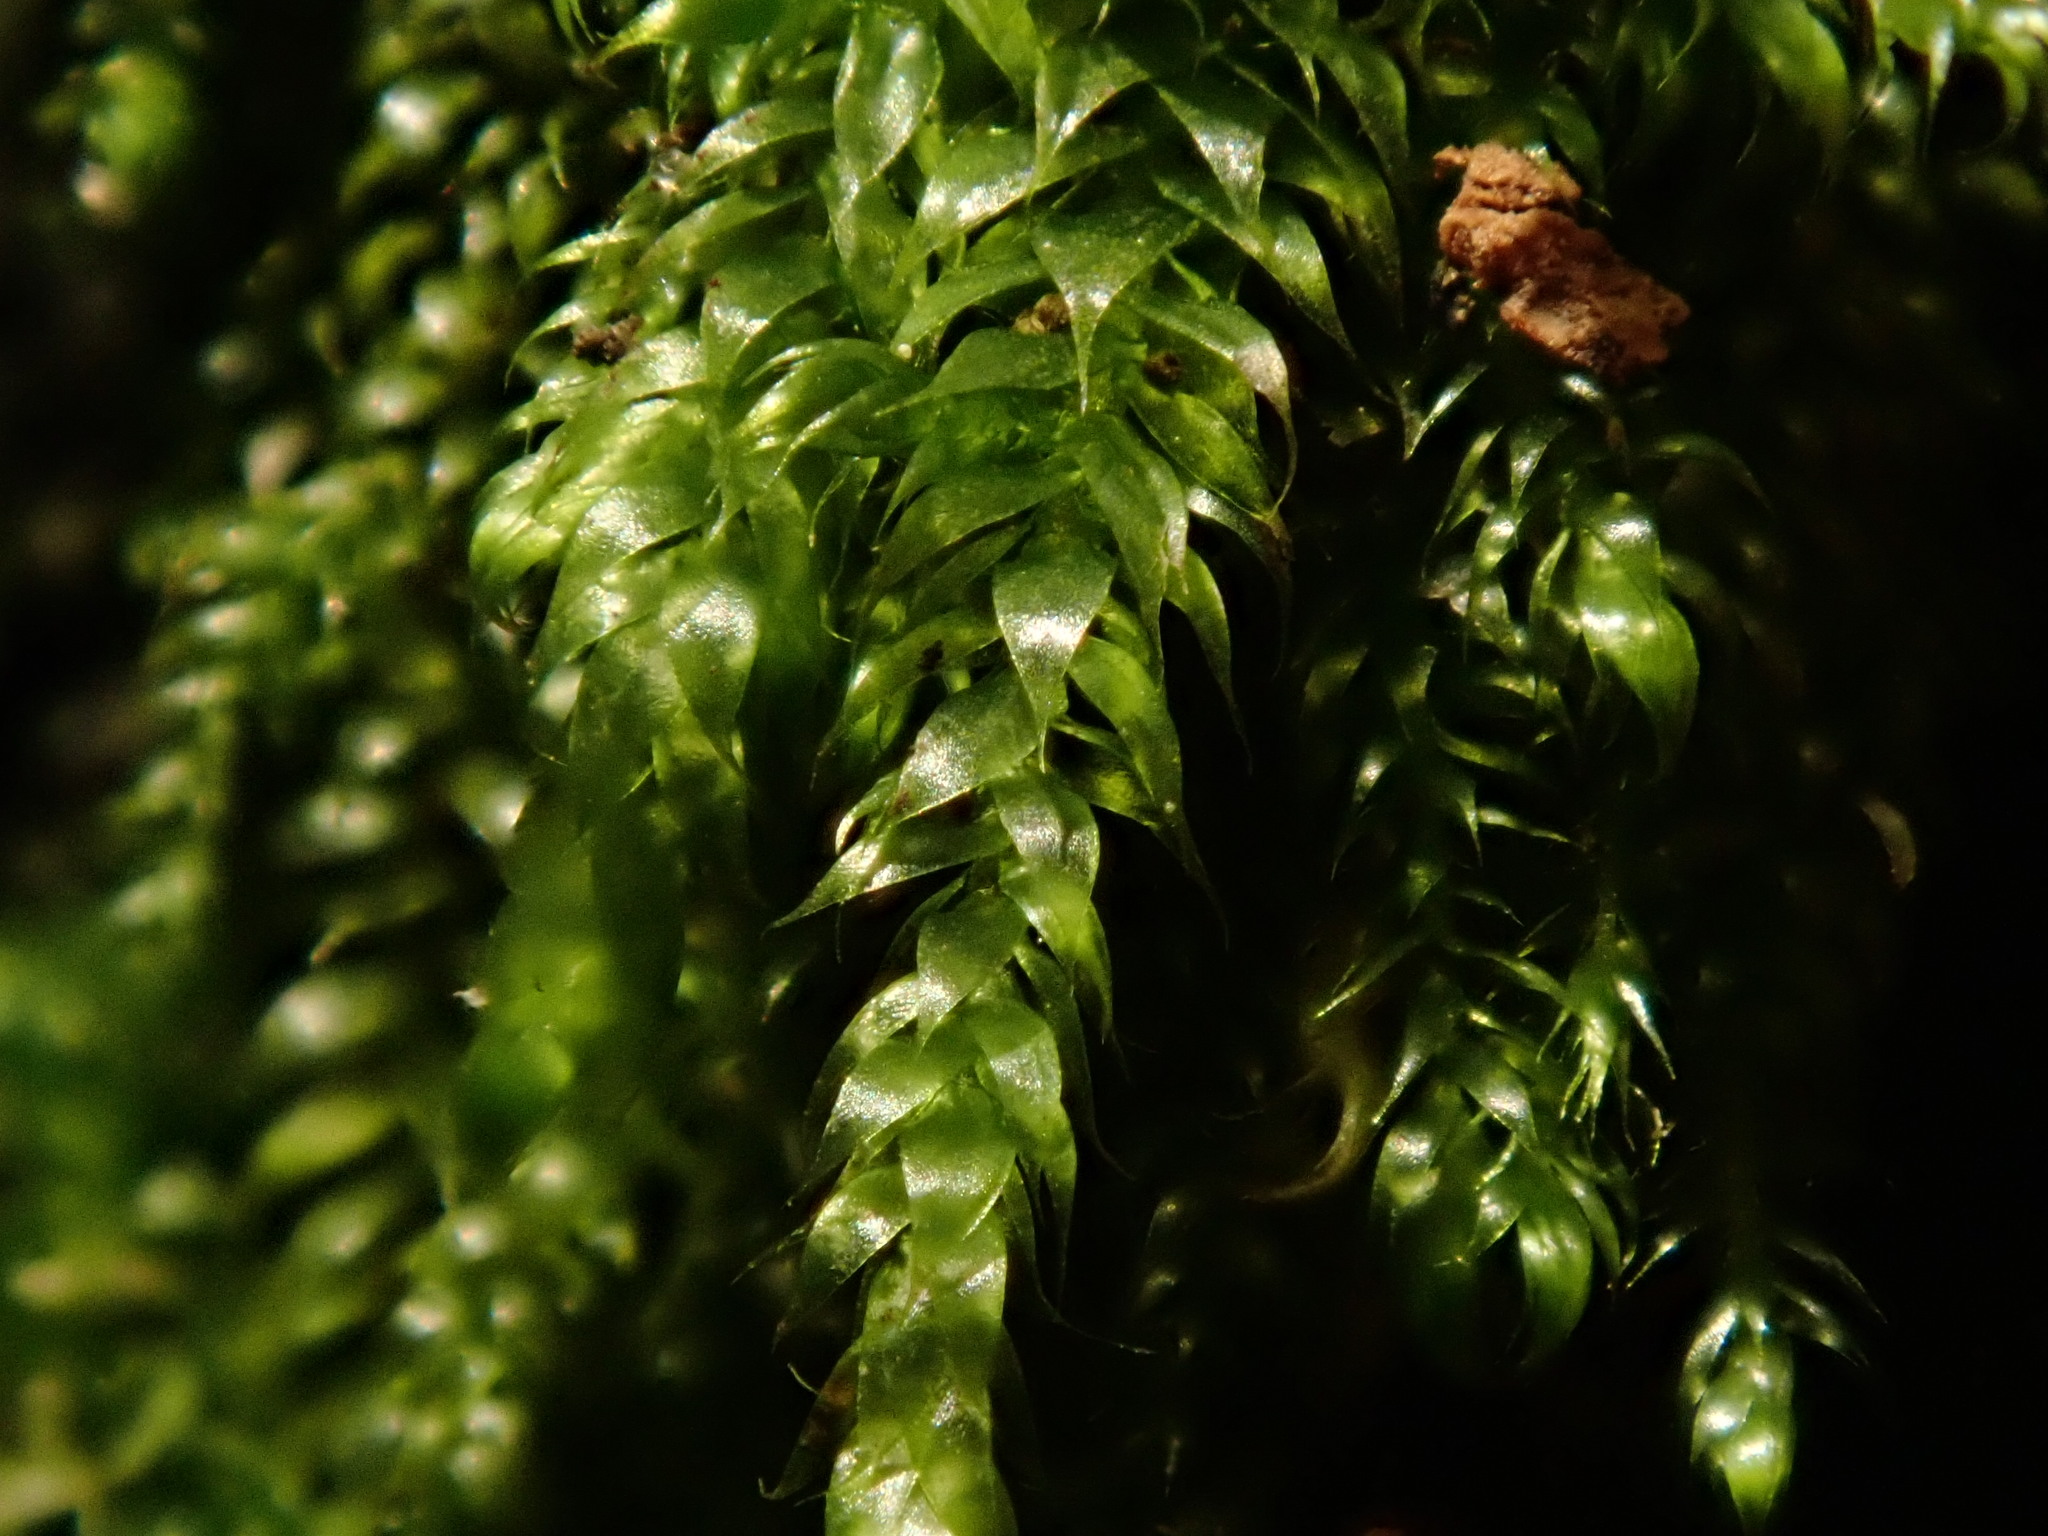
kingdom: Plantae
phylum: Bryophyta
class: Bryopsida
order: Hypnales
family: Hypnaceae
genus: Hypnum
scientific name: Hypnum cupressiforme
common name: Cypress-leaved plait-moss
